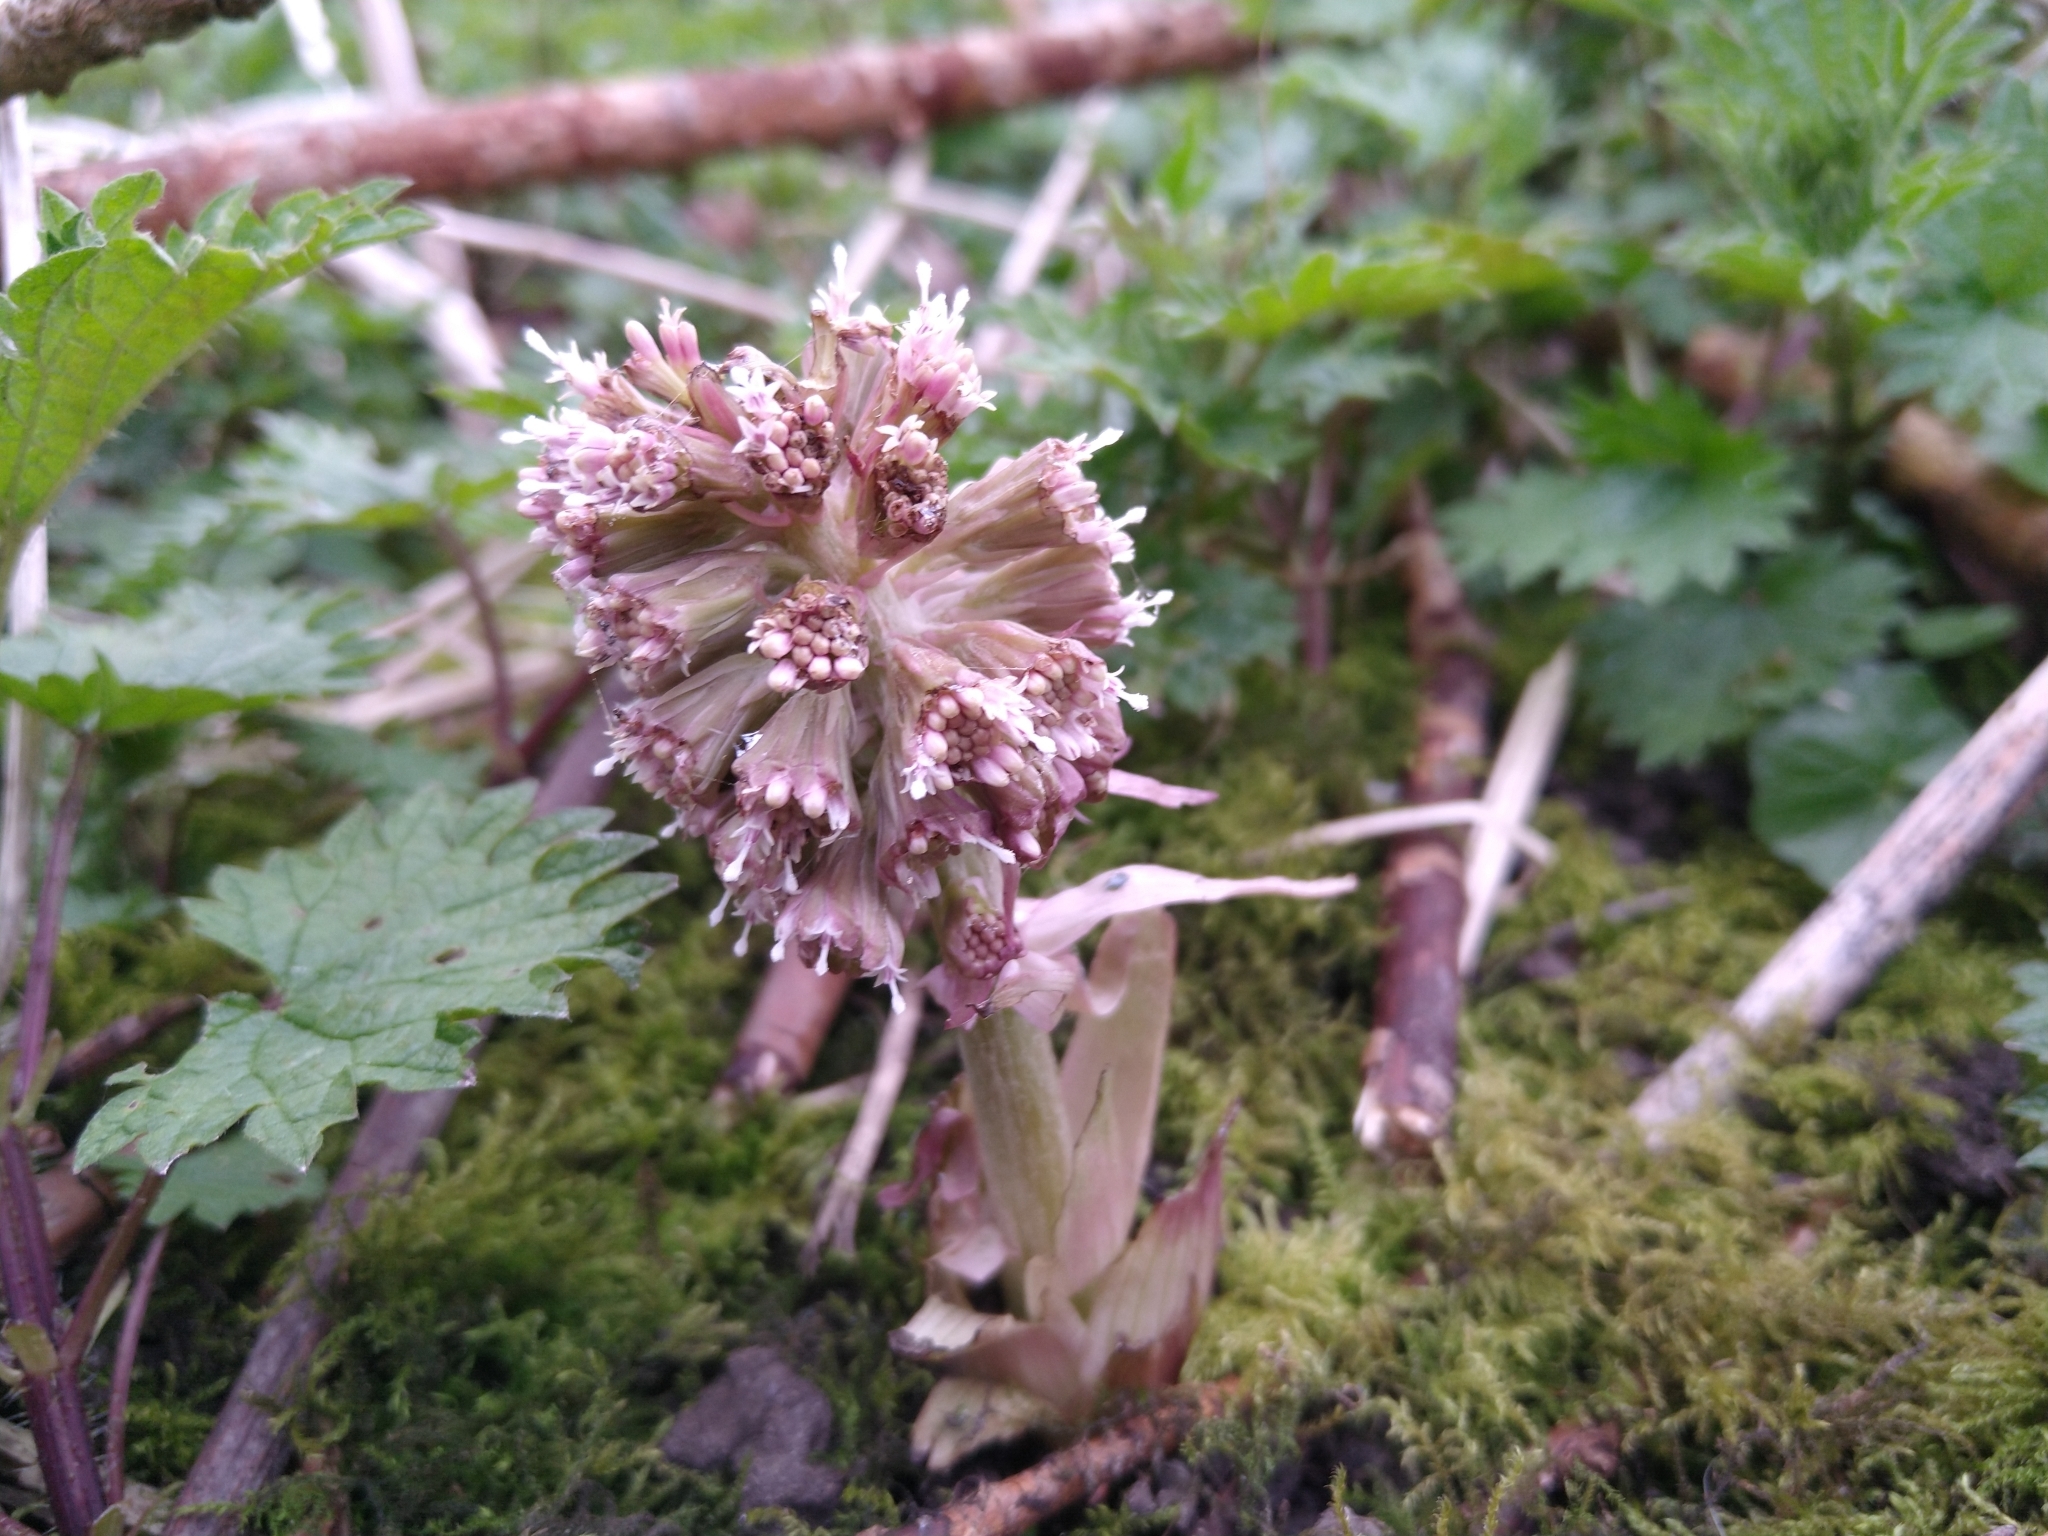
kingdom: Plantae
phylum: Tracheophyta
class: Magnoliopsida
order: Asterales
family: Asteraceae
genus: Petasites
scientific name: Petasites hybridus
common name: Butterbur
